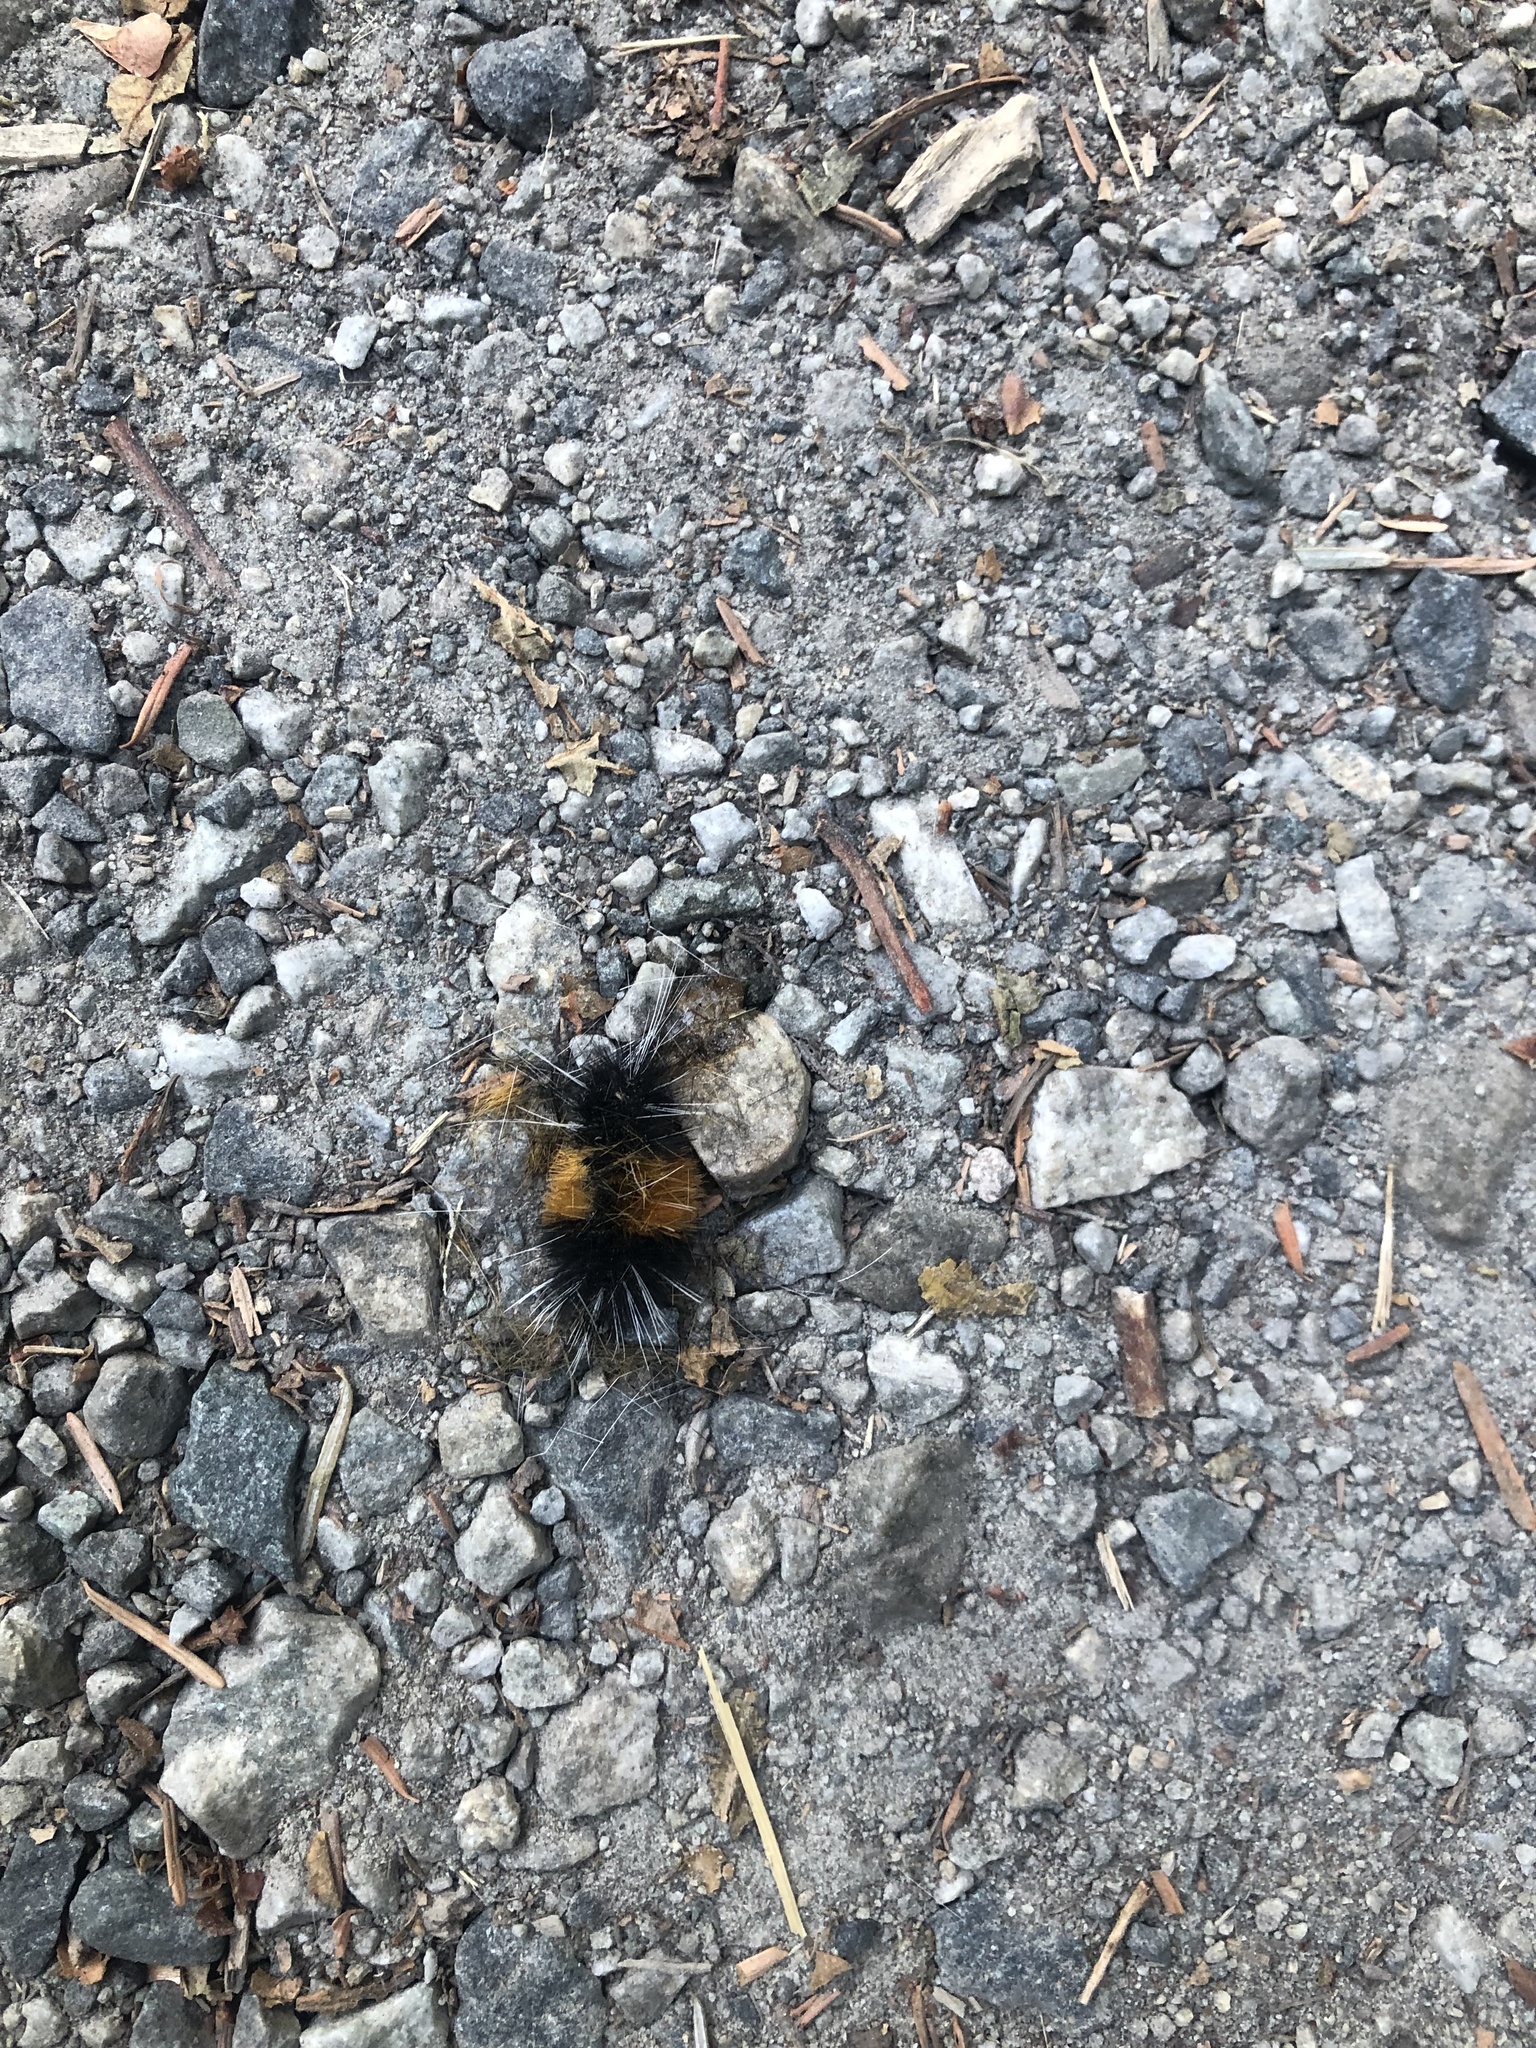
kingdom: Animalia
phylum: Arthropoda
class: Insecta
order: Lepidoptera
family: Erebidae
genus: Lophocampa
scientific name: Lophocampa maculata
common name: Spotted tussock moth
